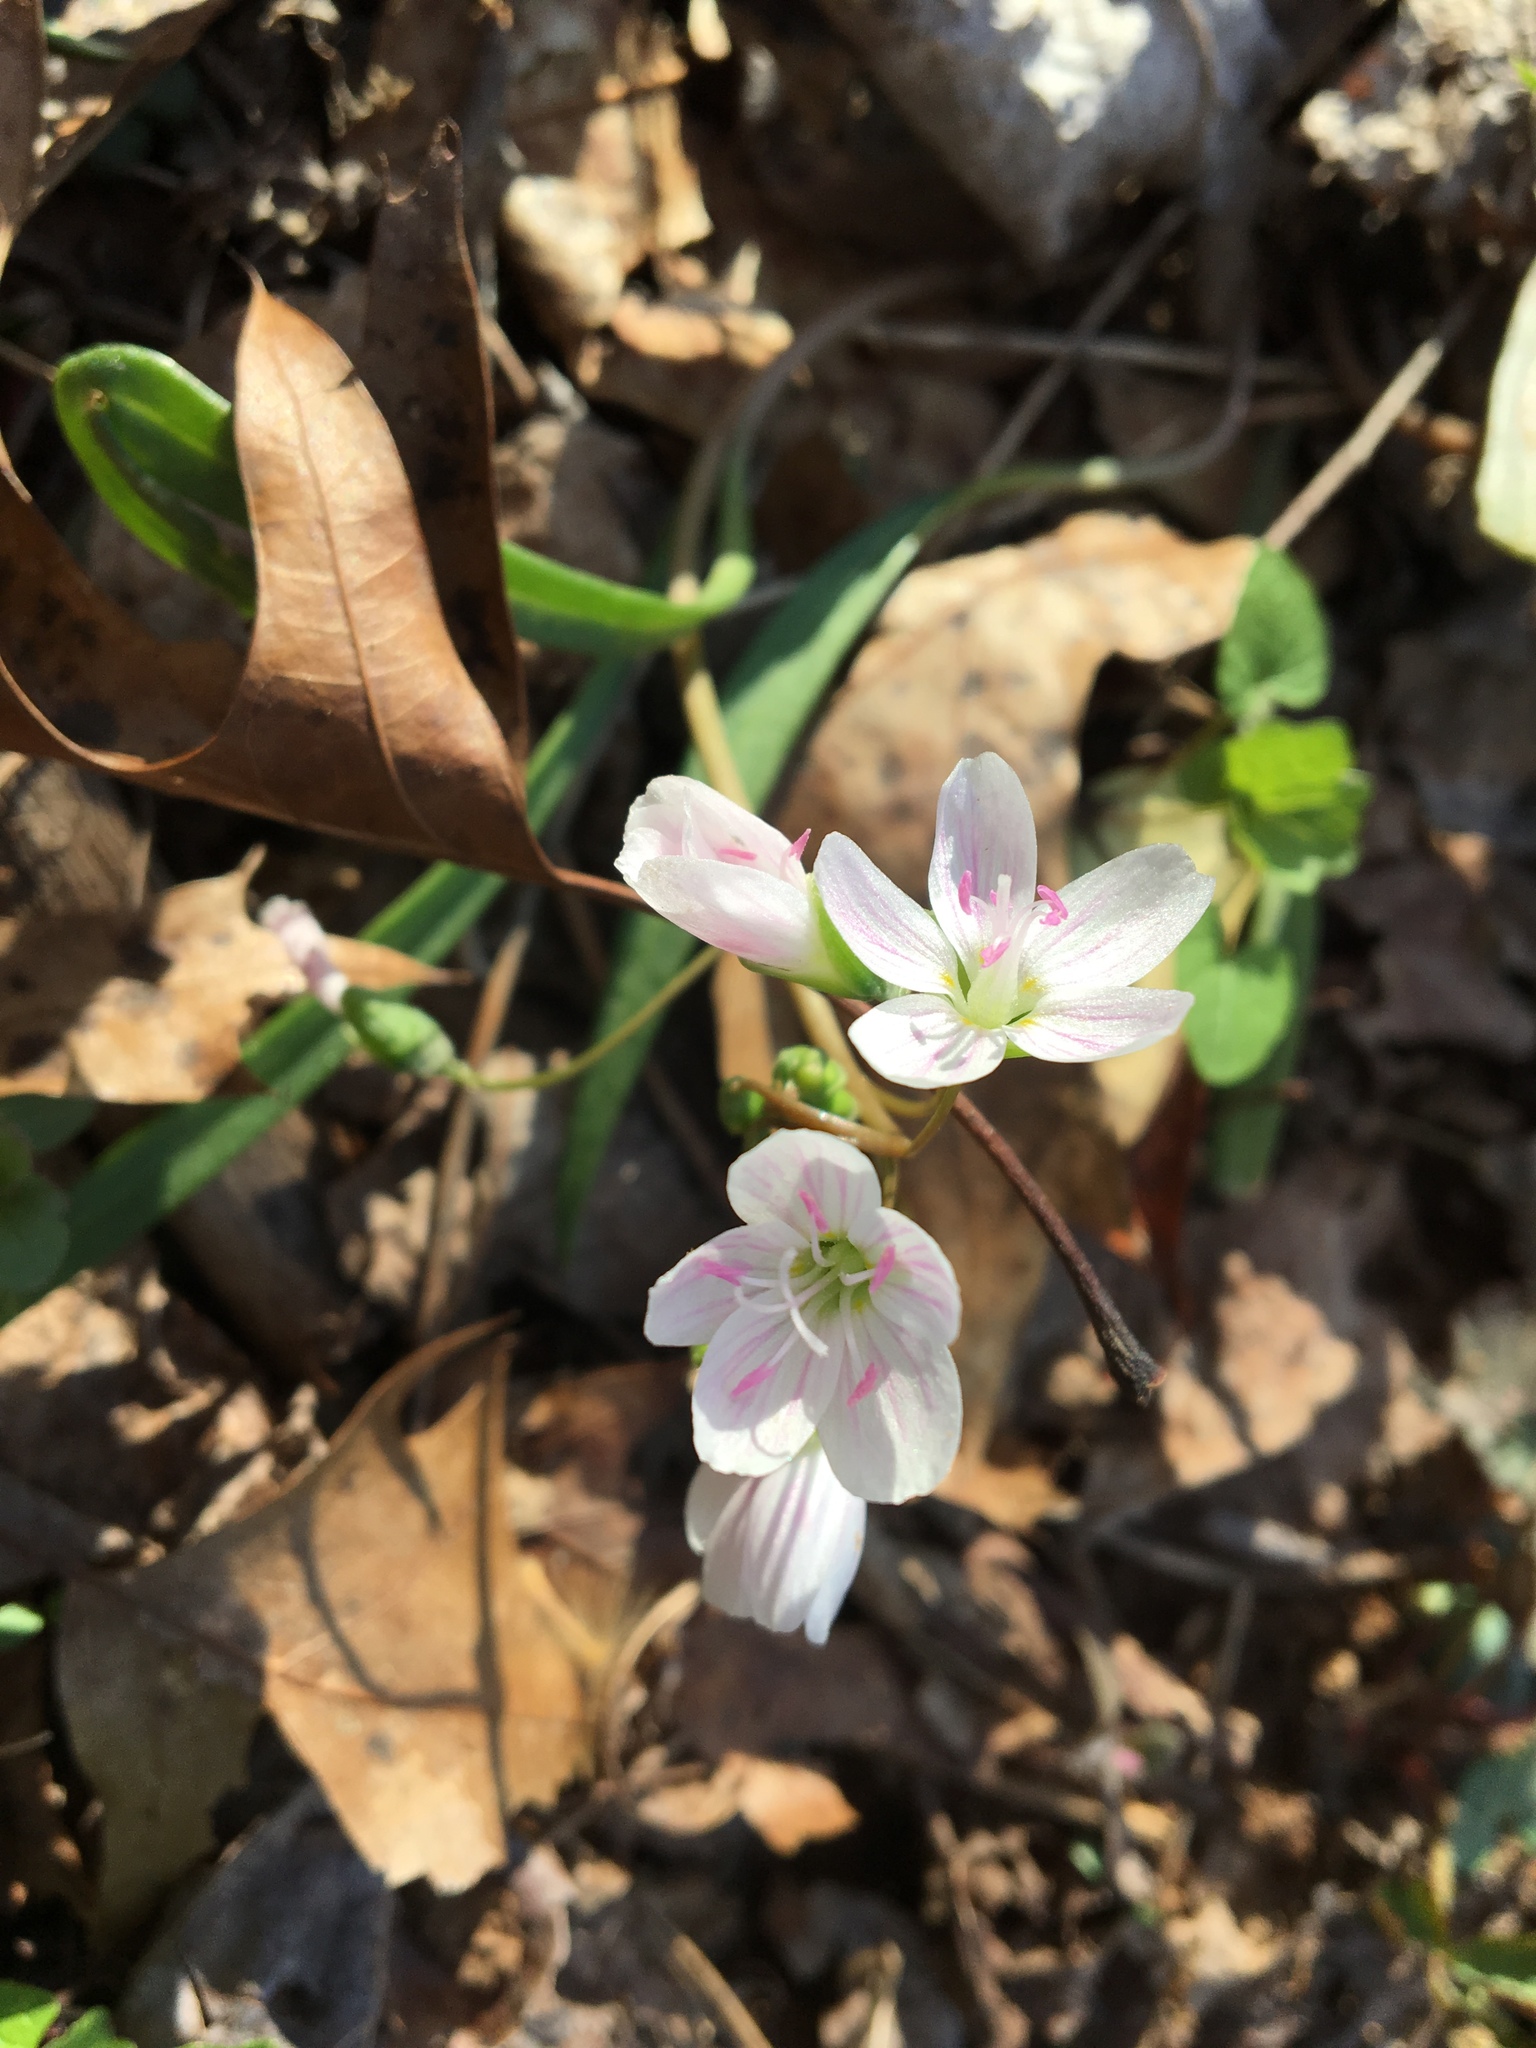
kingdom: Plantae
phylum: Tracheophyta
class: Magnoliopsida
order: Caryophyllales
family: Montiaceae
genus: Claytonia
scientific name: Claytonia virginica
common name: Virginia springbeauty
